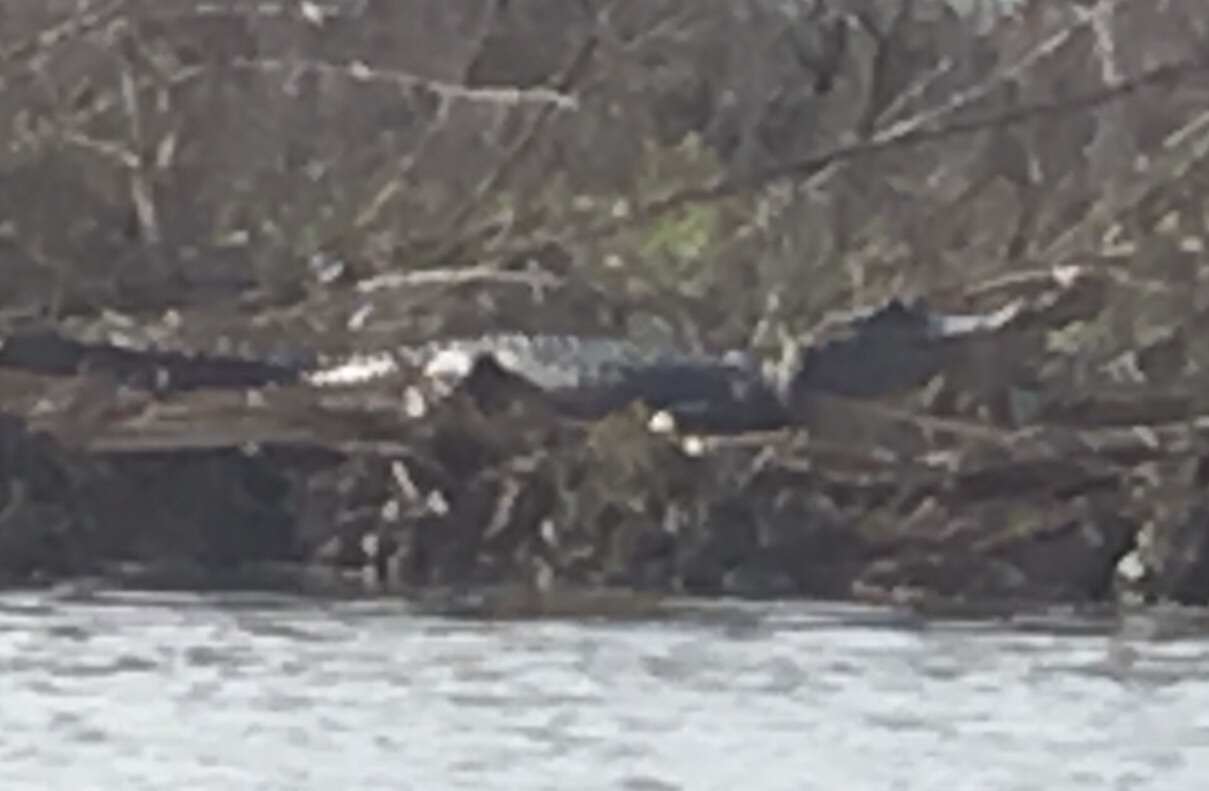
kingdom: Animalia
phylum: Chordata
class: Crocodylia
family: Alligatoridae
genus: Alligator
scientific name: Alligator mississippiensis
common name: American alligator
